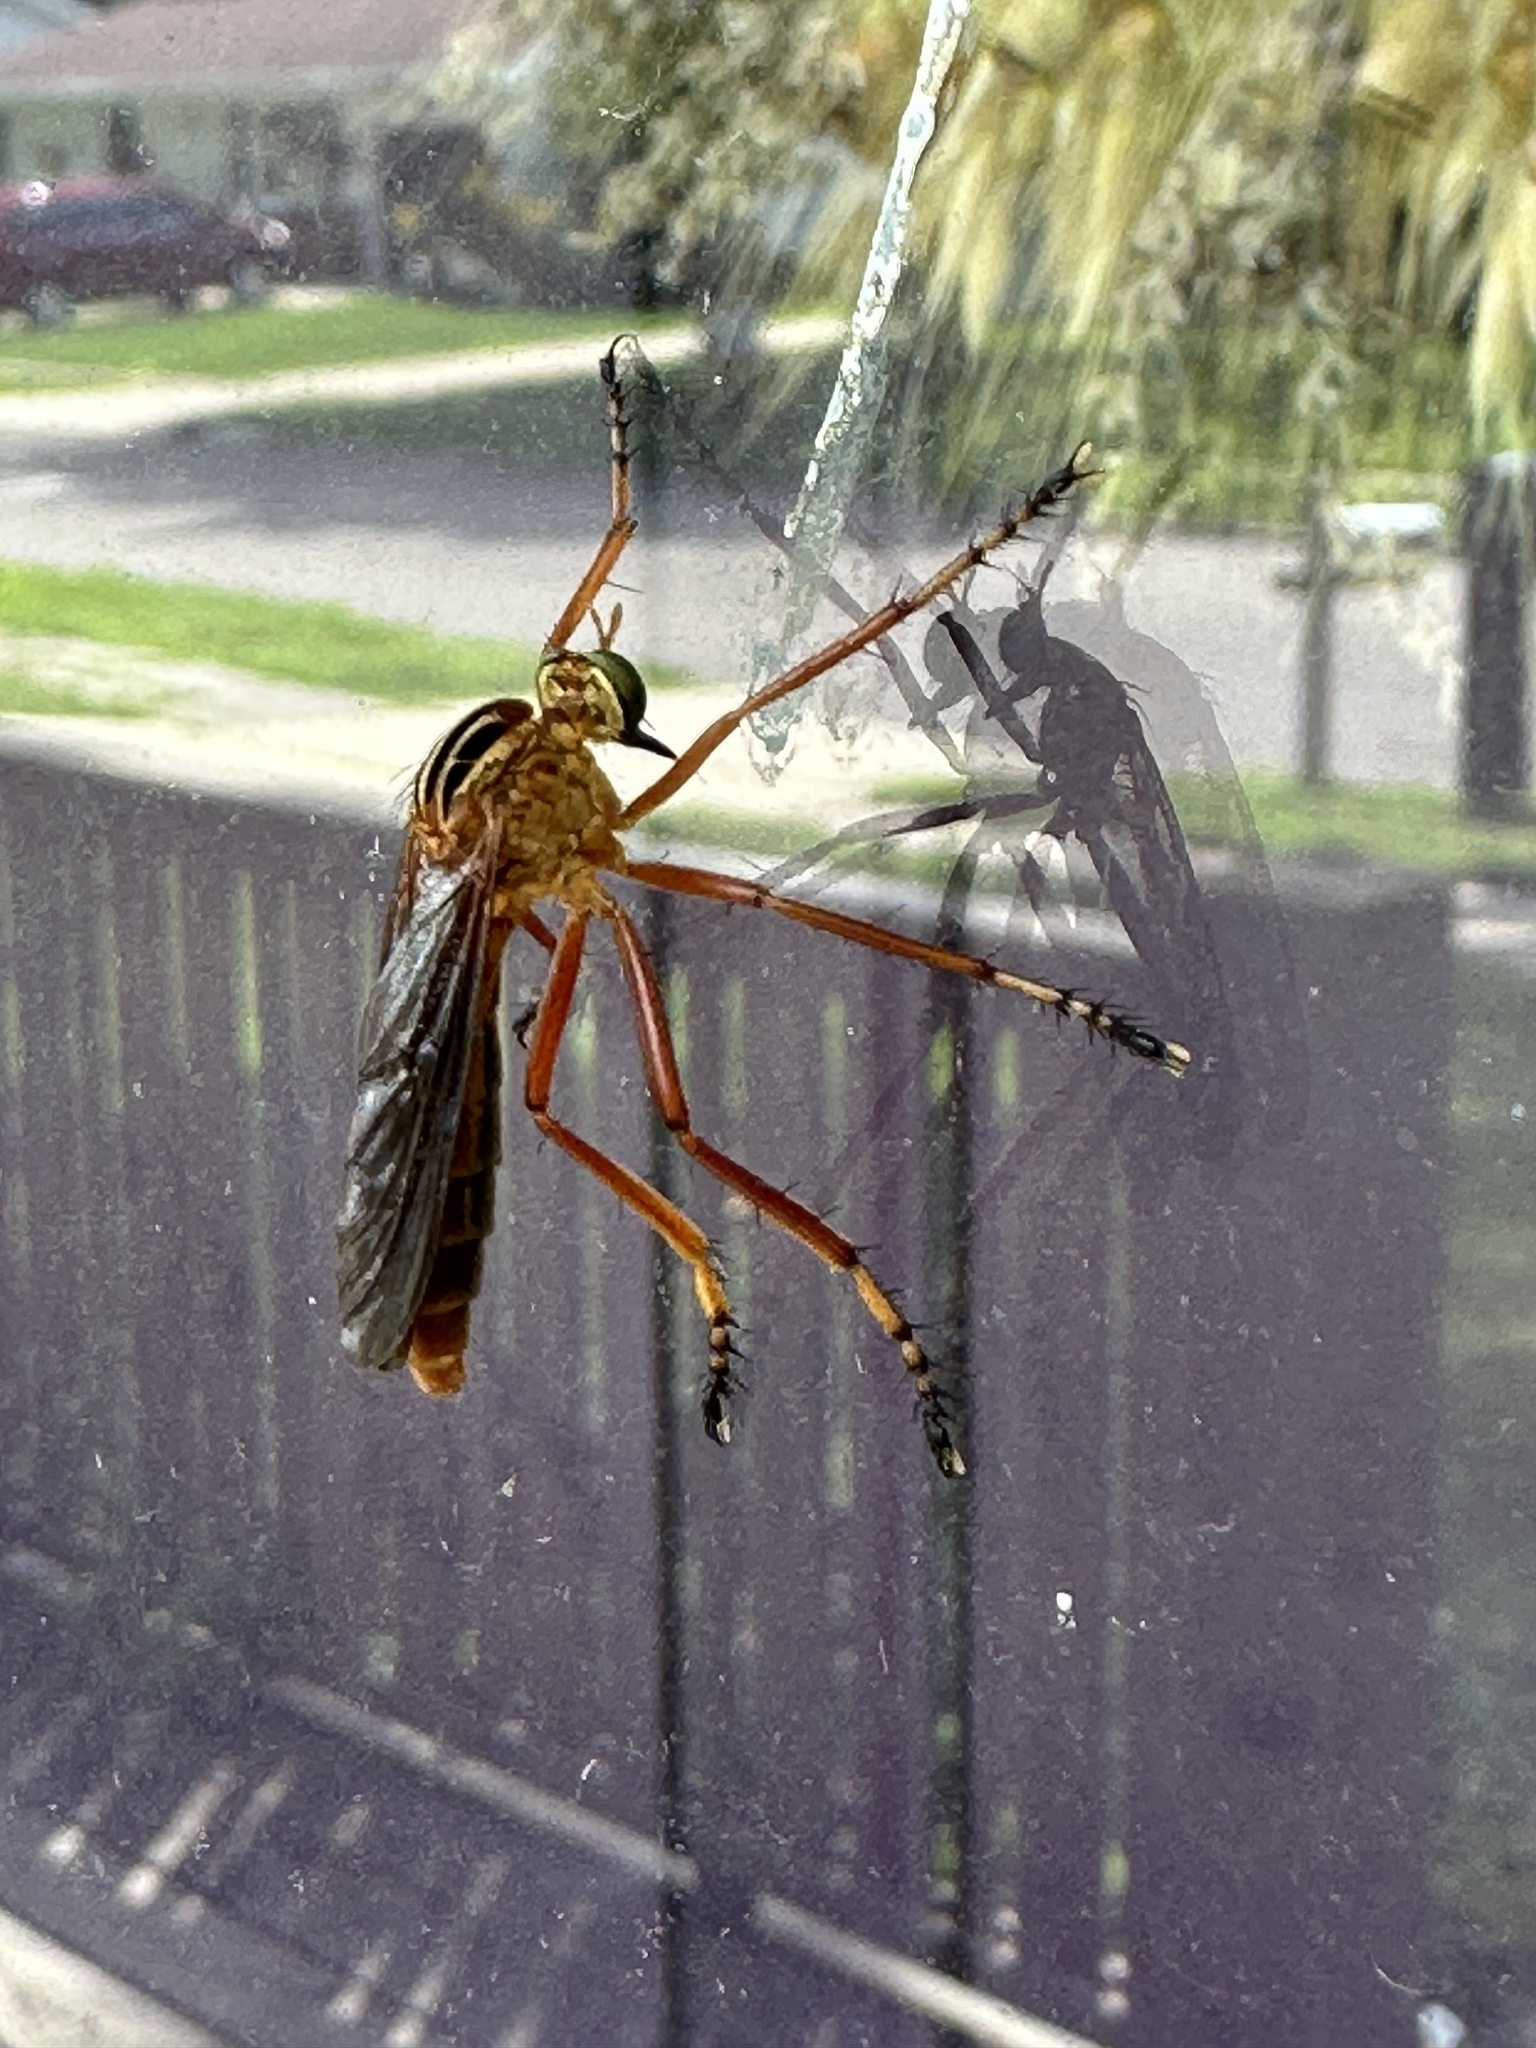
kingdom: Animalia
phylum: Arthropoda
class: Insecta
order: Diptera
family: Asilidae
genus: Diogmites
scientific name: Diogmites neoternatus
